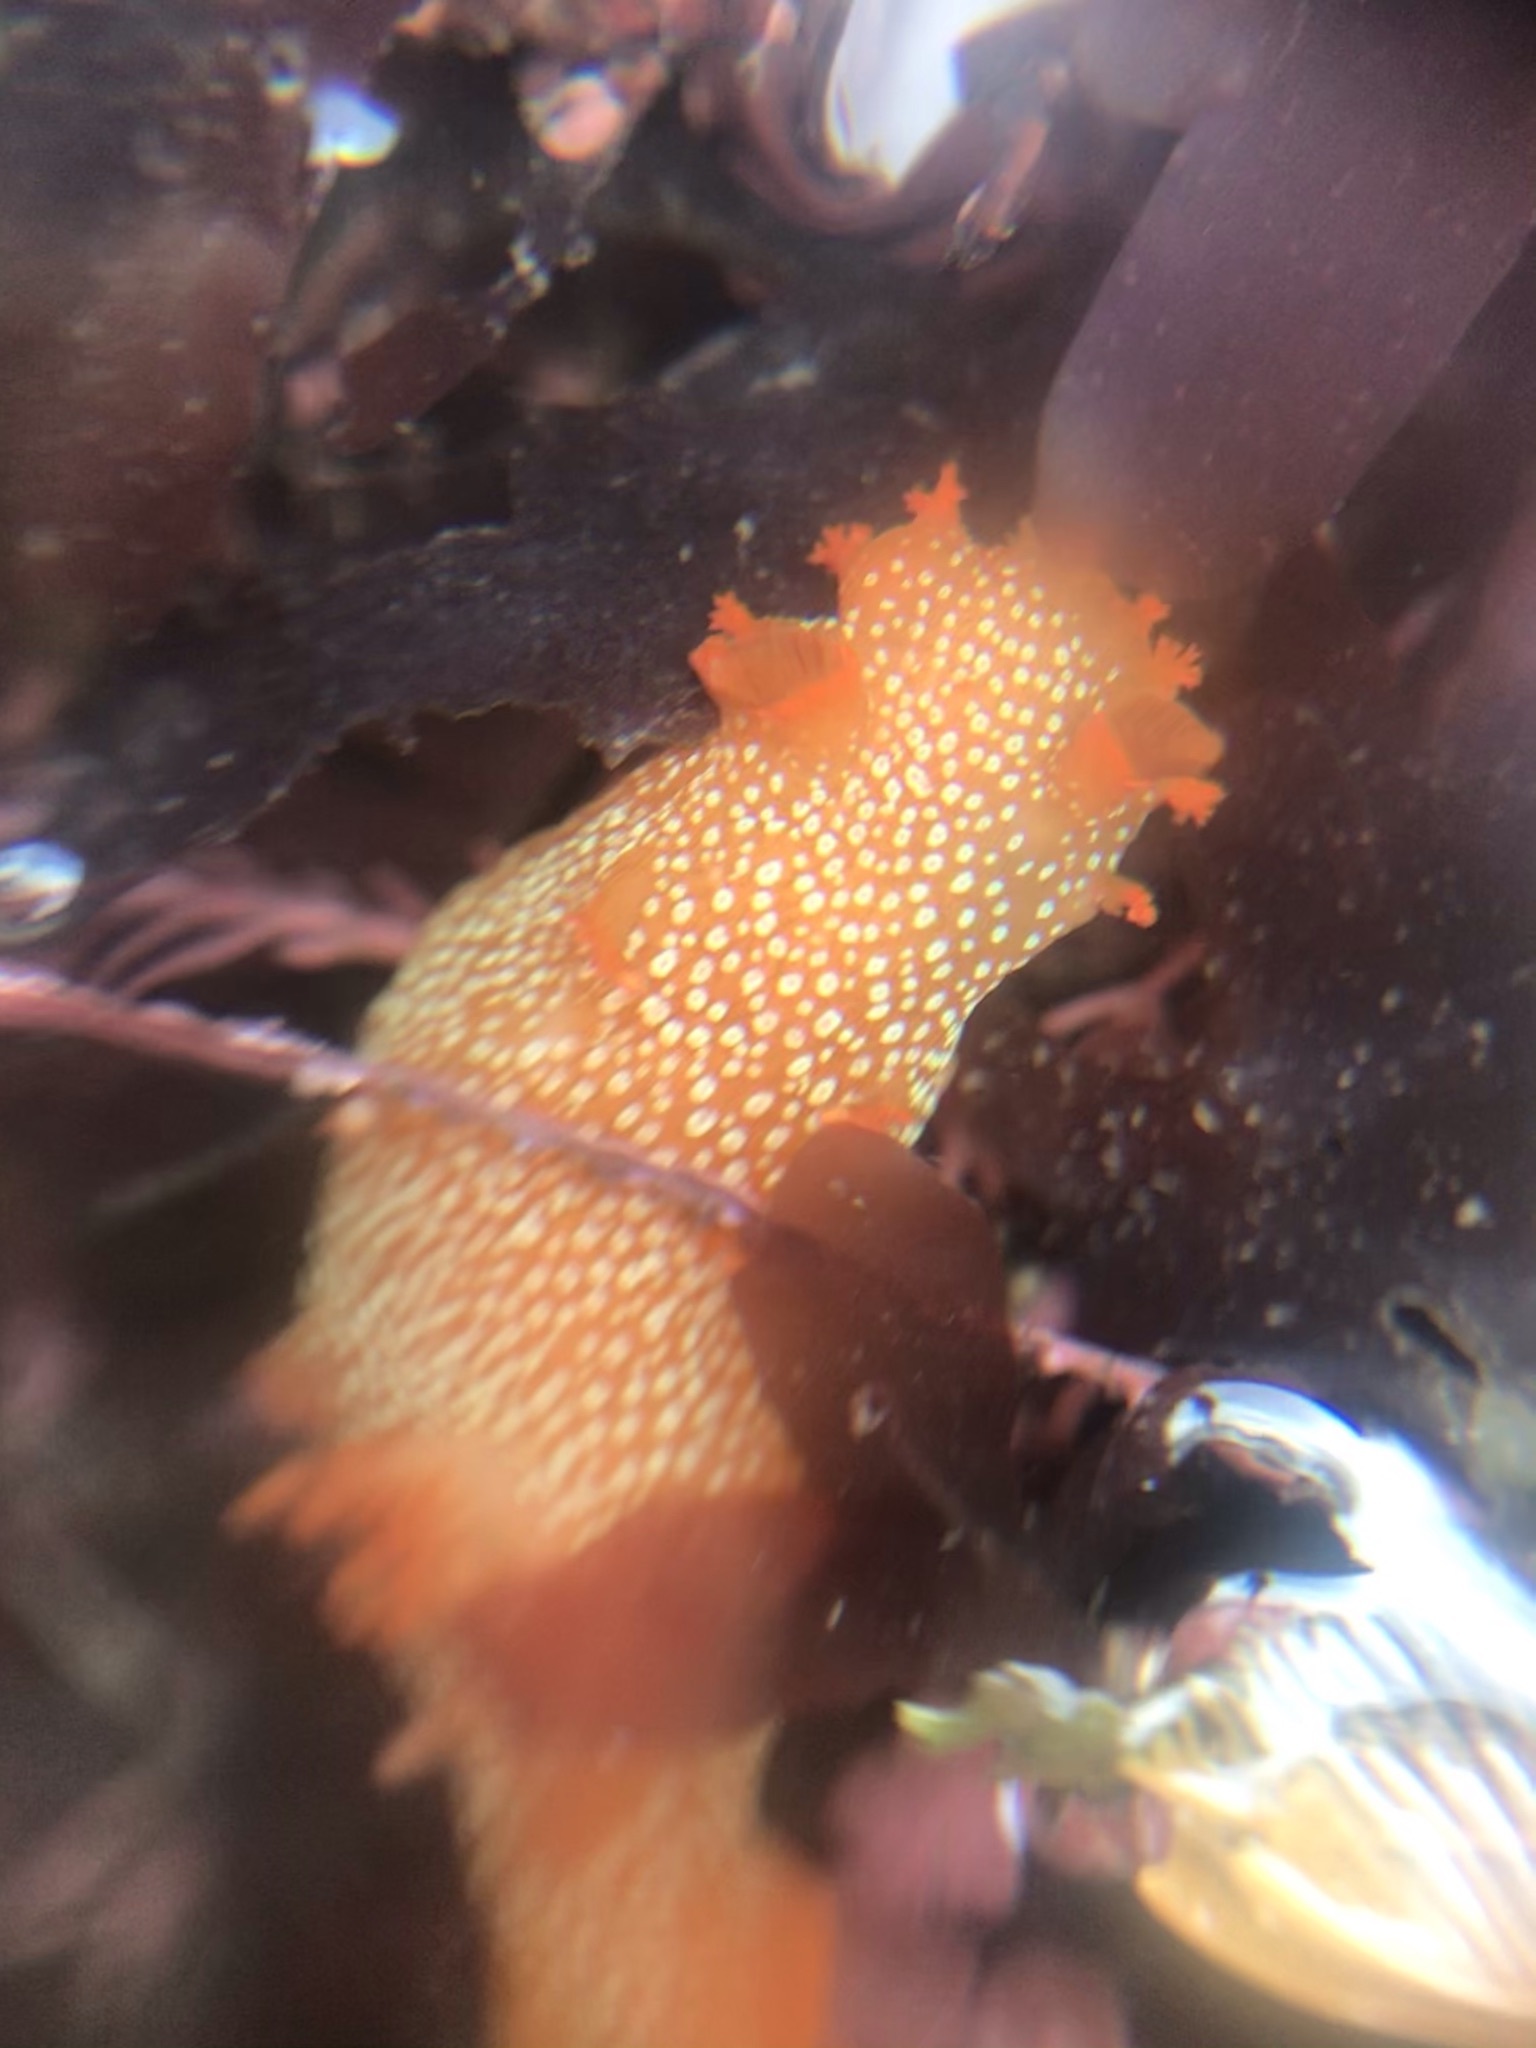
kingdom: Animalia
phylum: Mollusca
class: Gastropoda
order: Nudibranchia
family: Polyceridae
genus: Triopha
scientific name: Triopha maculata
